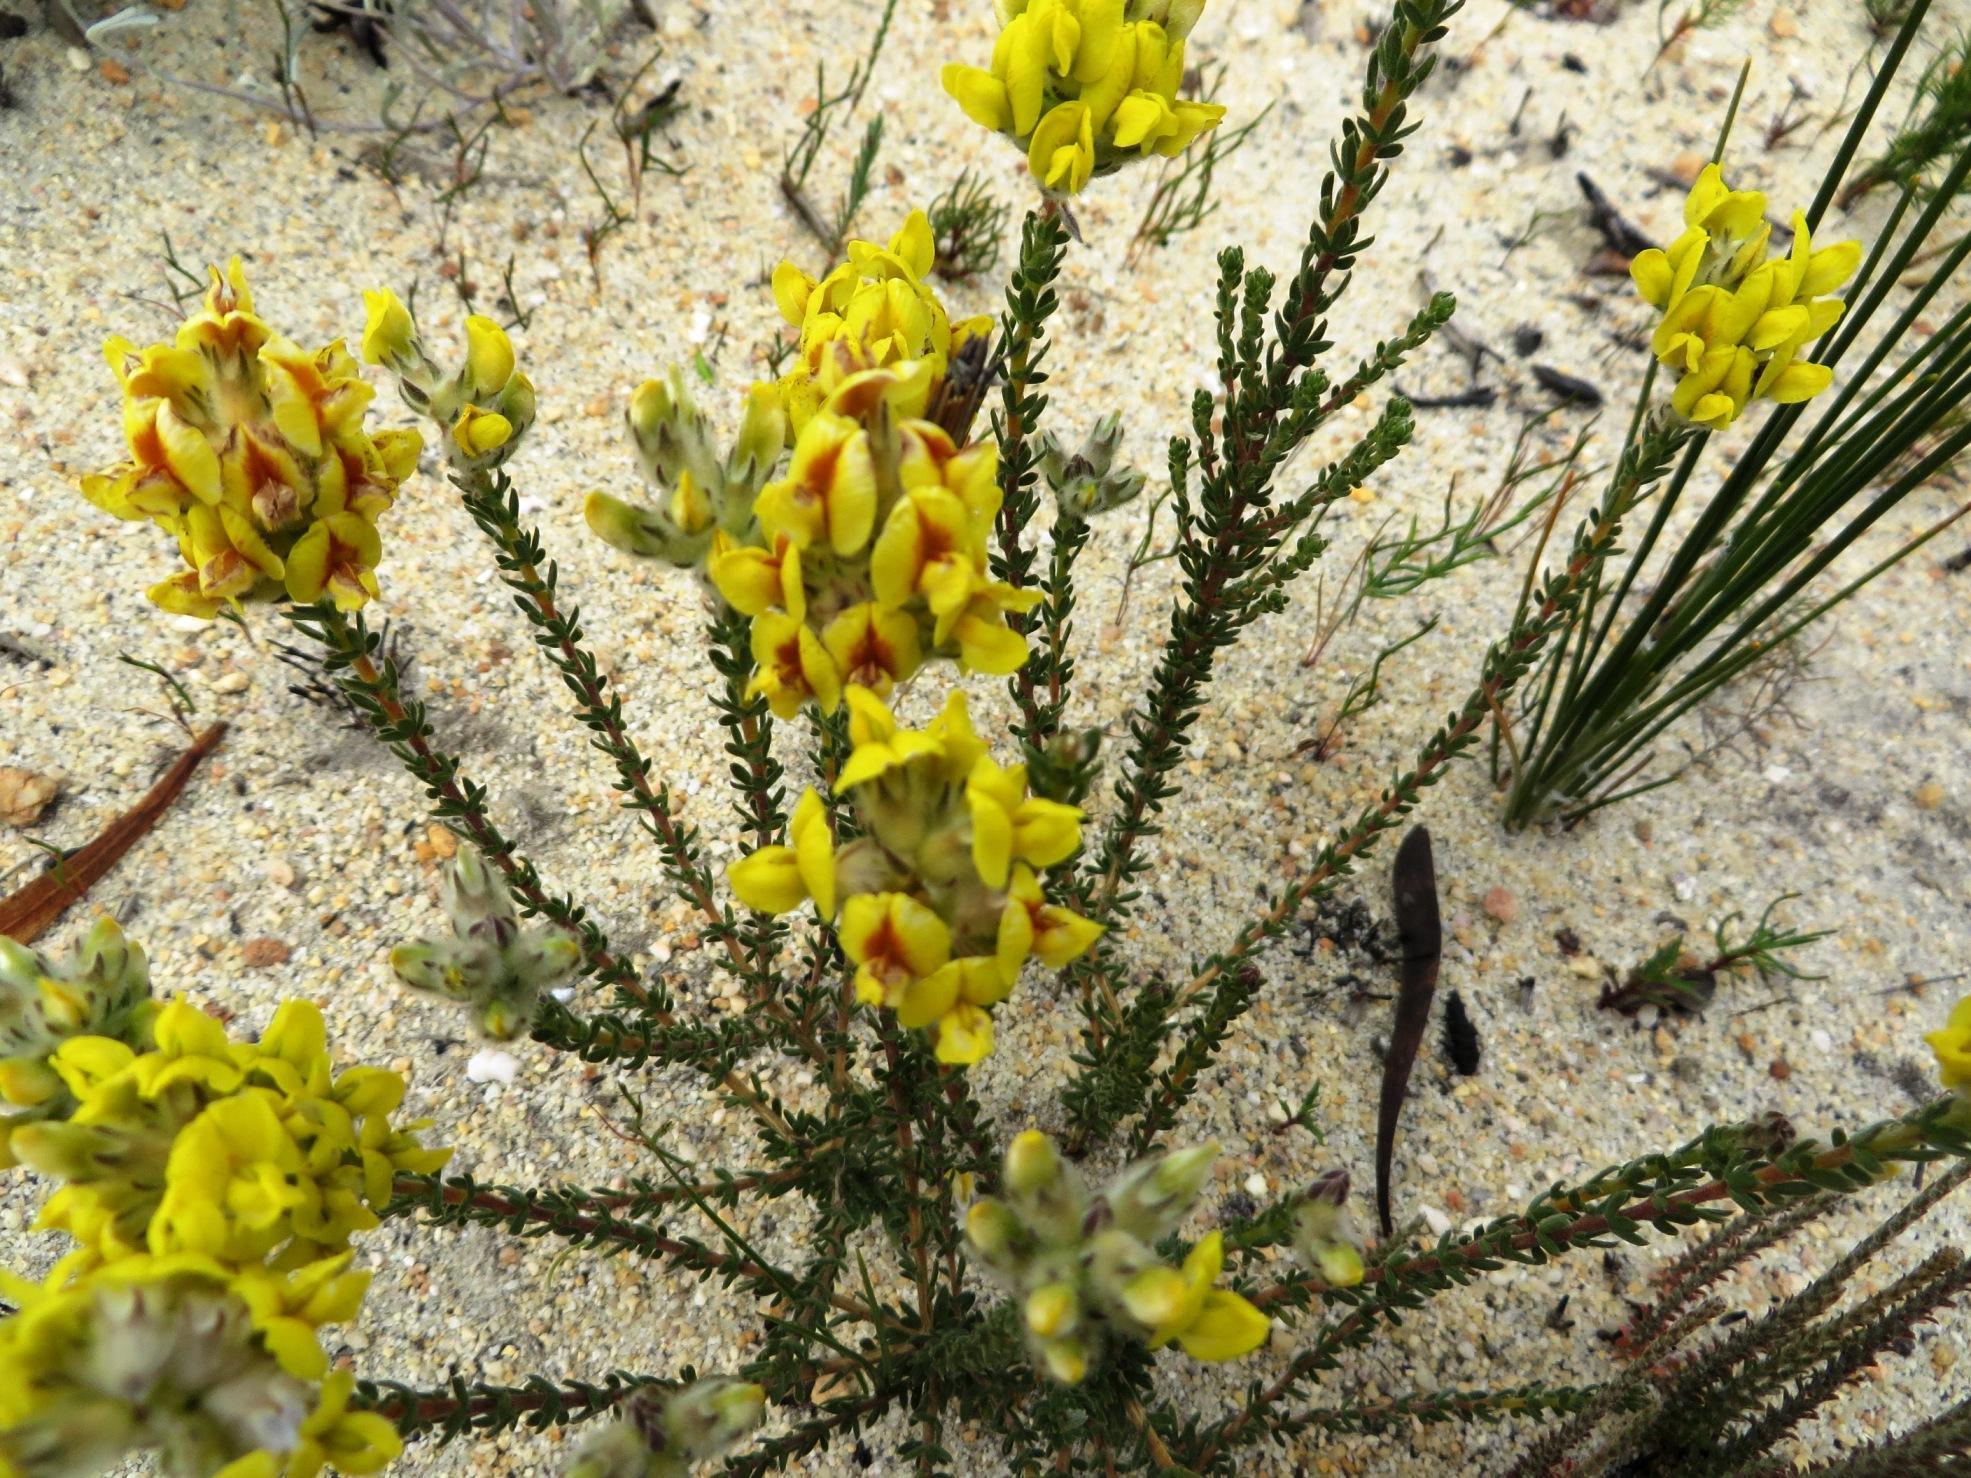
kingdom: Plantae
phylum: Tracheophyta
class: Magnoliopsida
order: Fabales
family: Fabaceae
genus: Aspalathus
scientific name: Aspalathus quinquefolia
